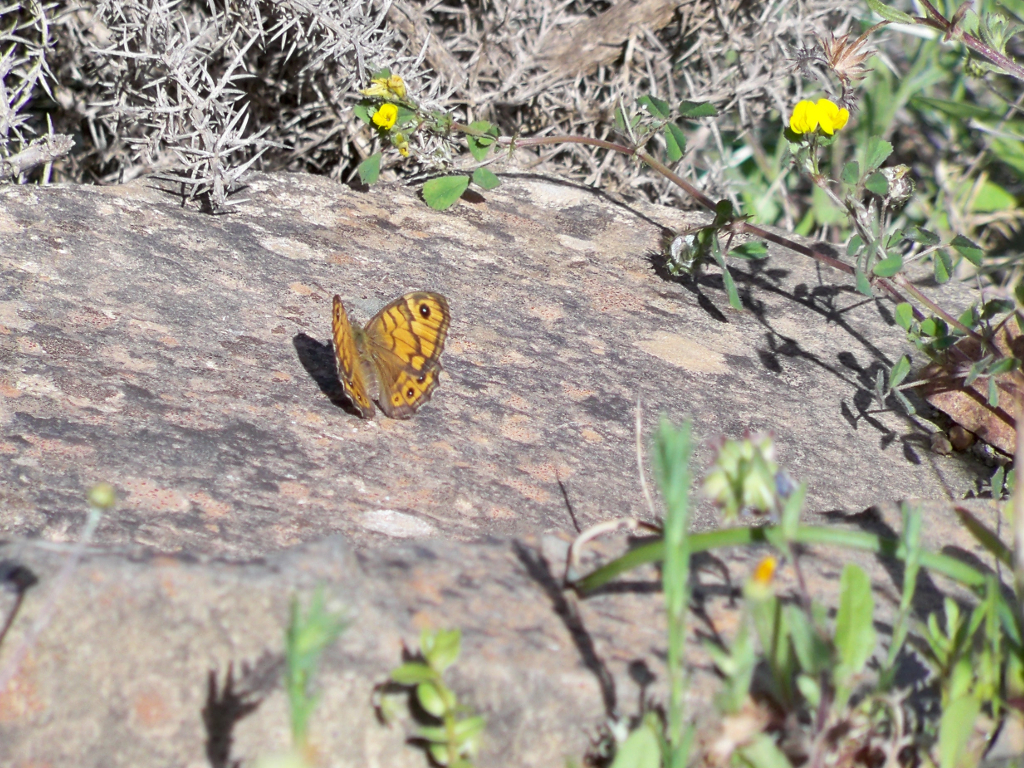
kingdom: Animalia
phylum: Arthropoda
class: Insecta
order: Lepidoptera
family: Nymphalidae
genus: Pararge
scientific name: Pararge Lasiommata megera
